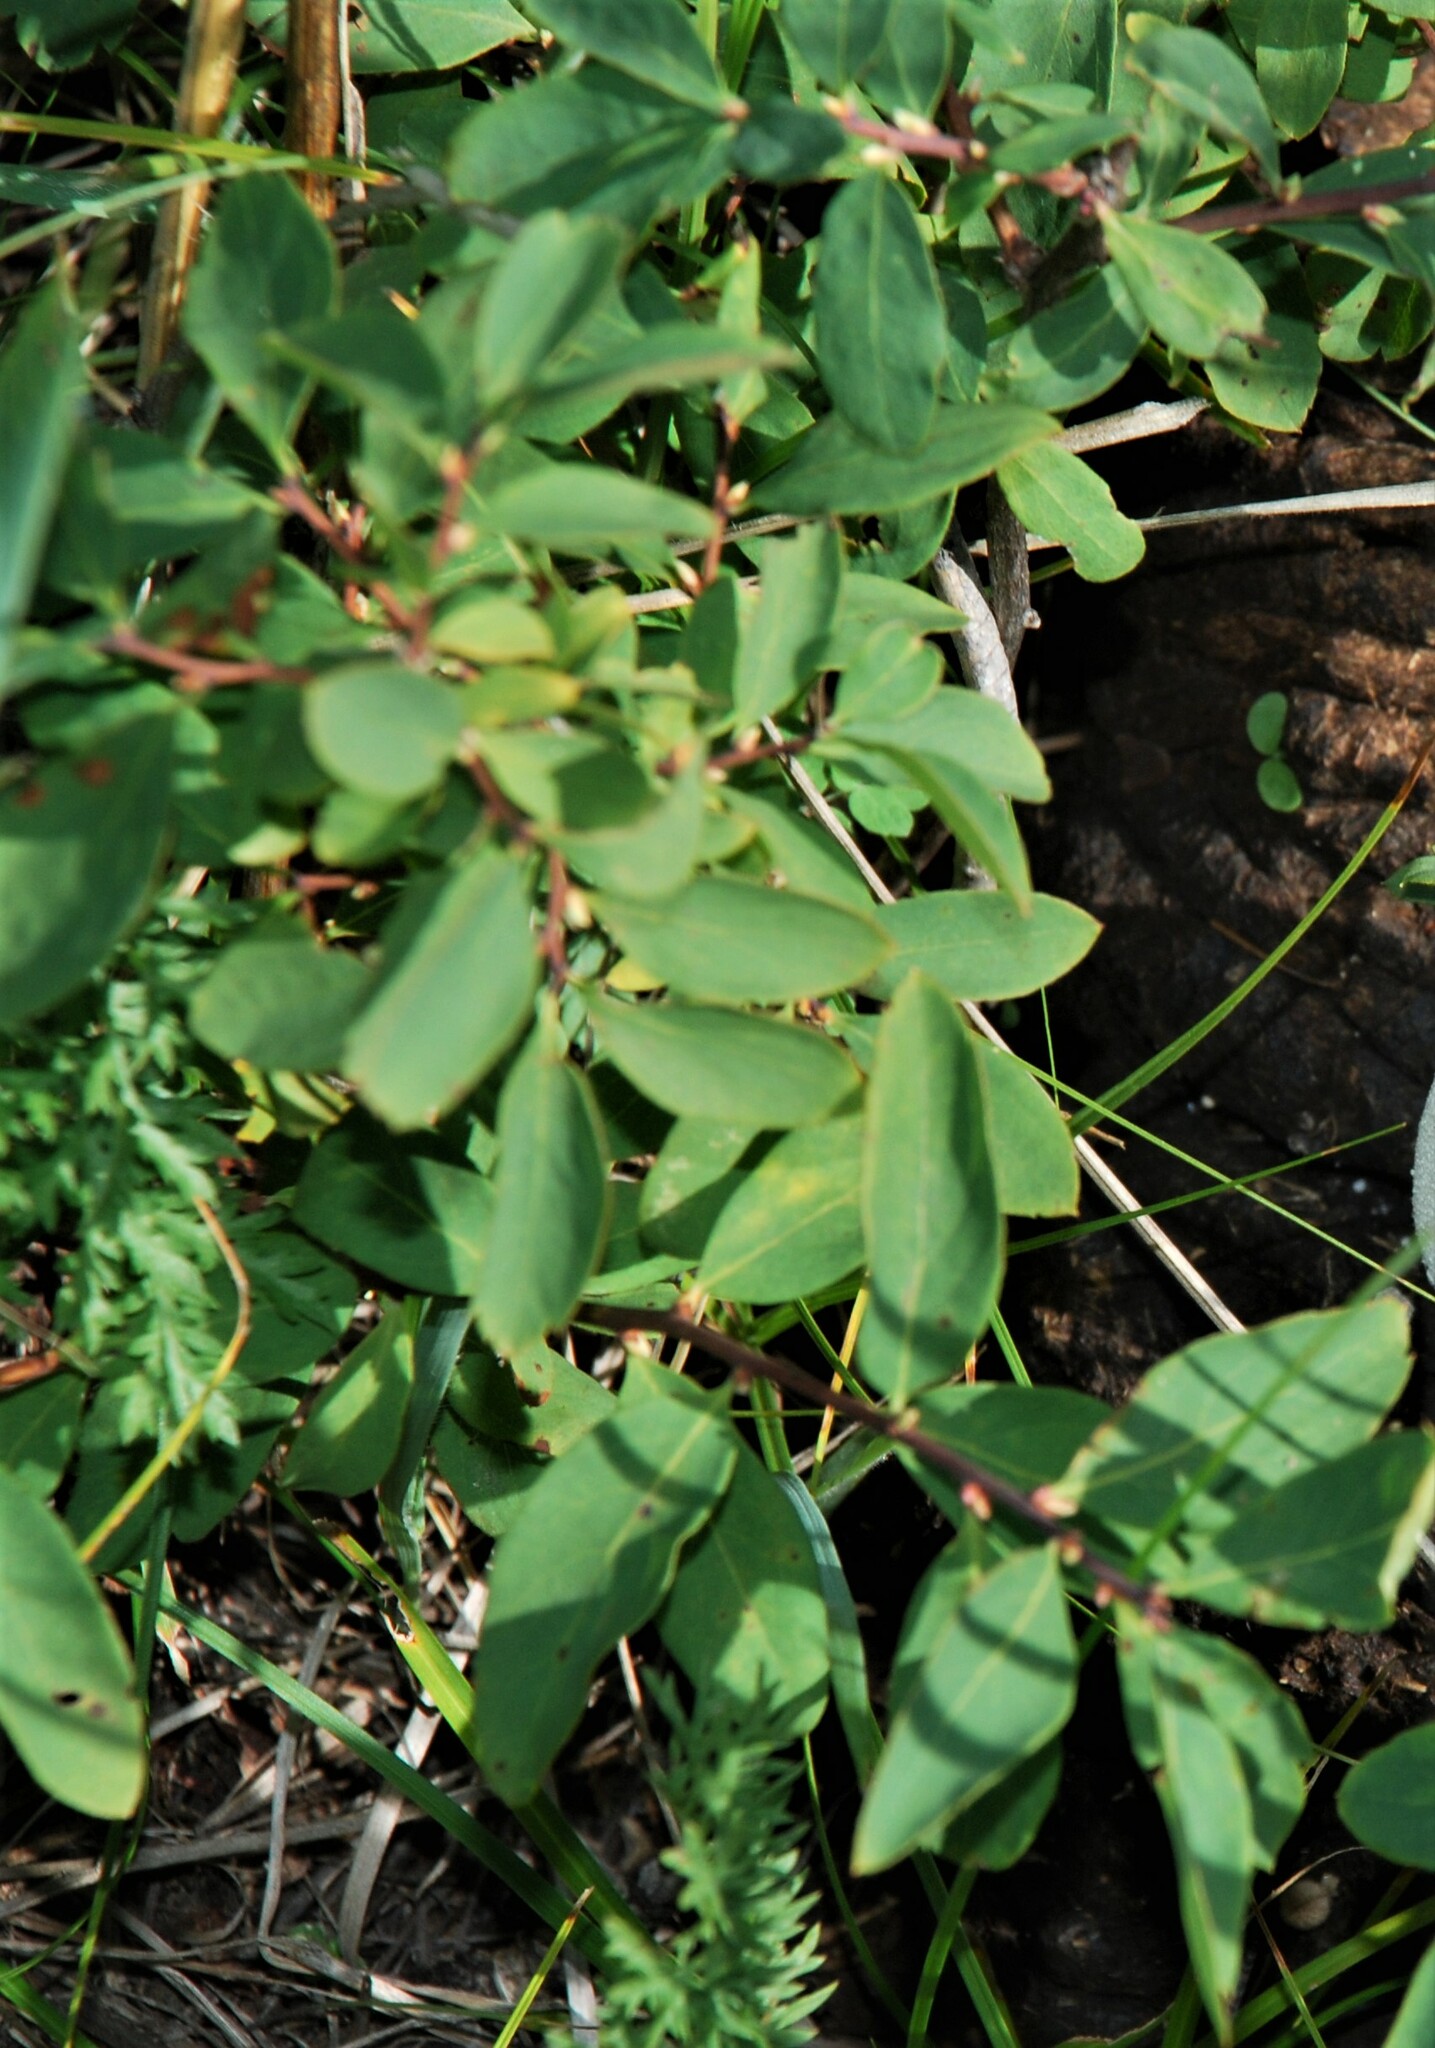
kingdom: Plantae
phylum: Tracheophyta
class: Magnoliopsida
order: Ericales
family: Ericaceae
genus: Vaccinium
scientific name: Vaccinium uliginosum
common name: Bog bilberry
